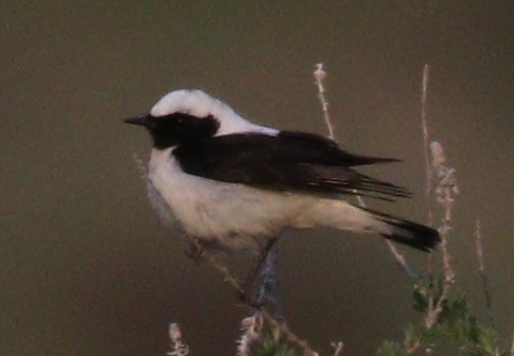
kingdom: Animalia
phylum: Chordata
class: Aves
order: Passeriformes
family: Muscicapidae
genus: Oenanthe
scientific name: Oenanthe hispanica
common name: Black-eared wheatear
